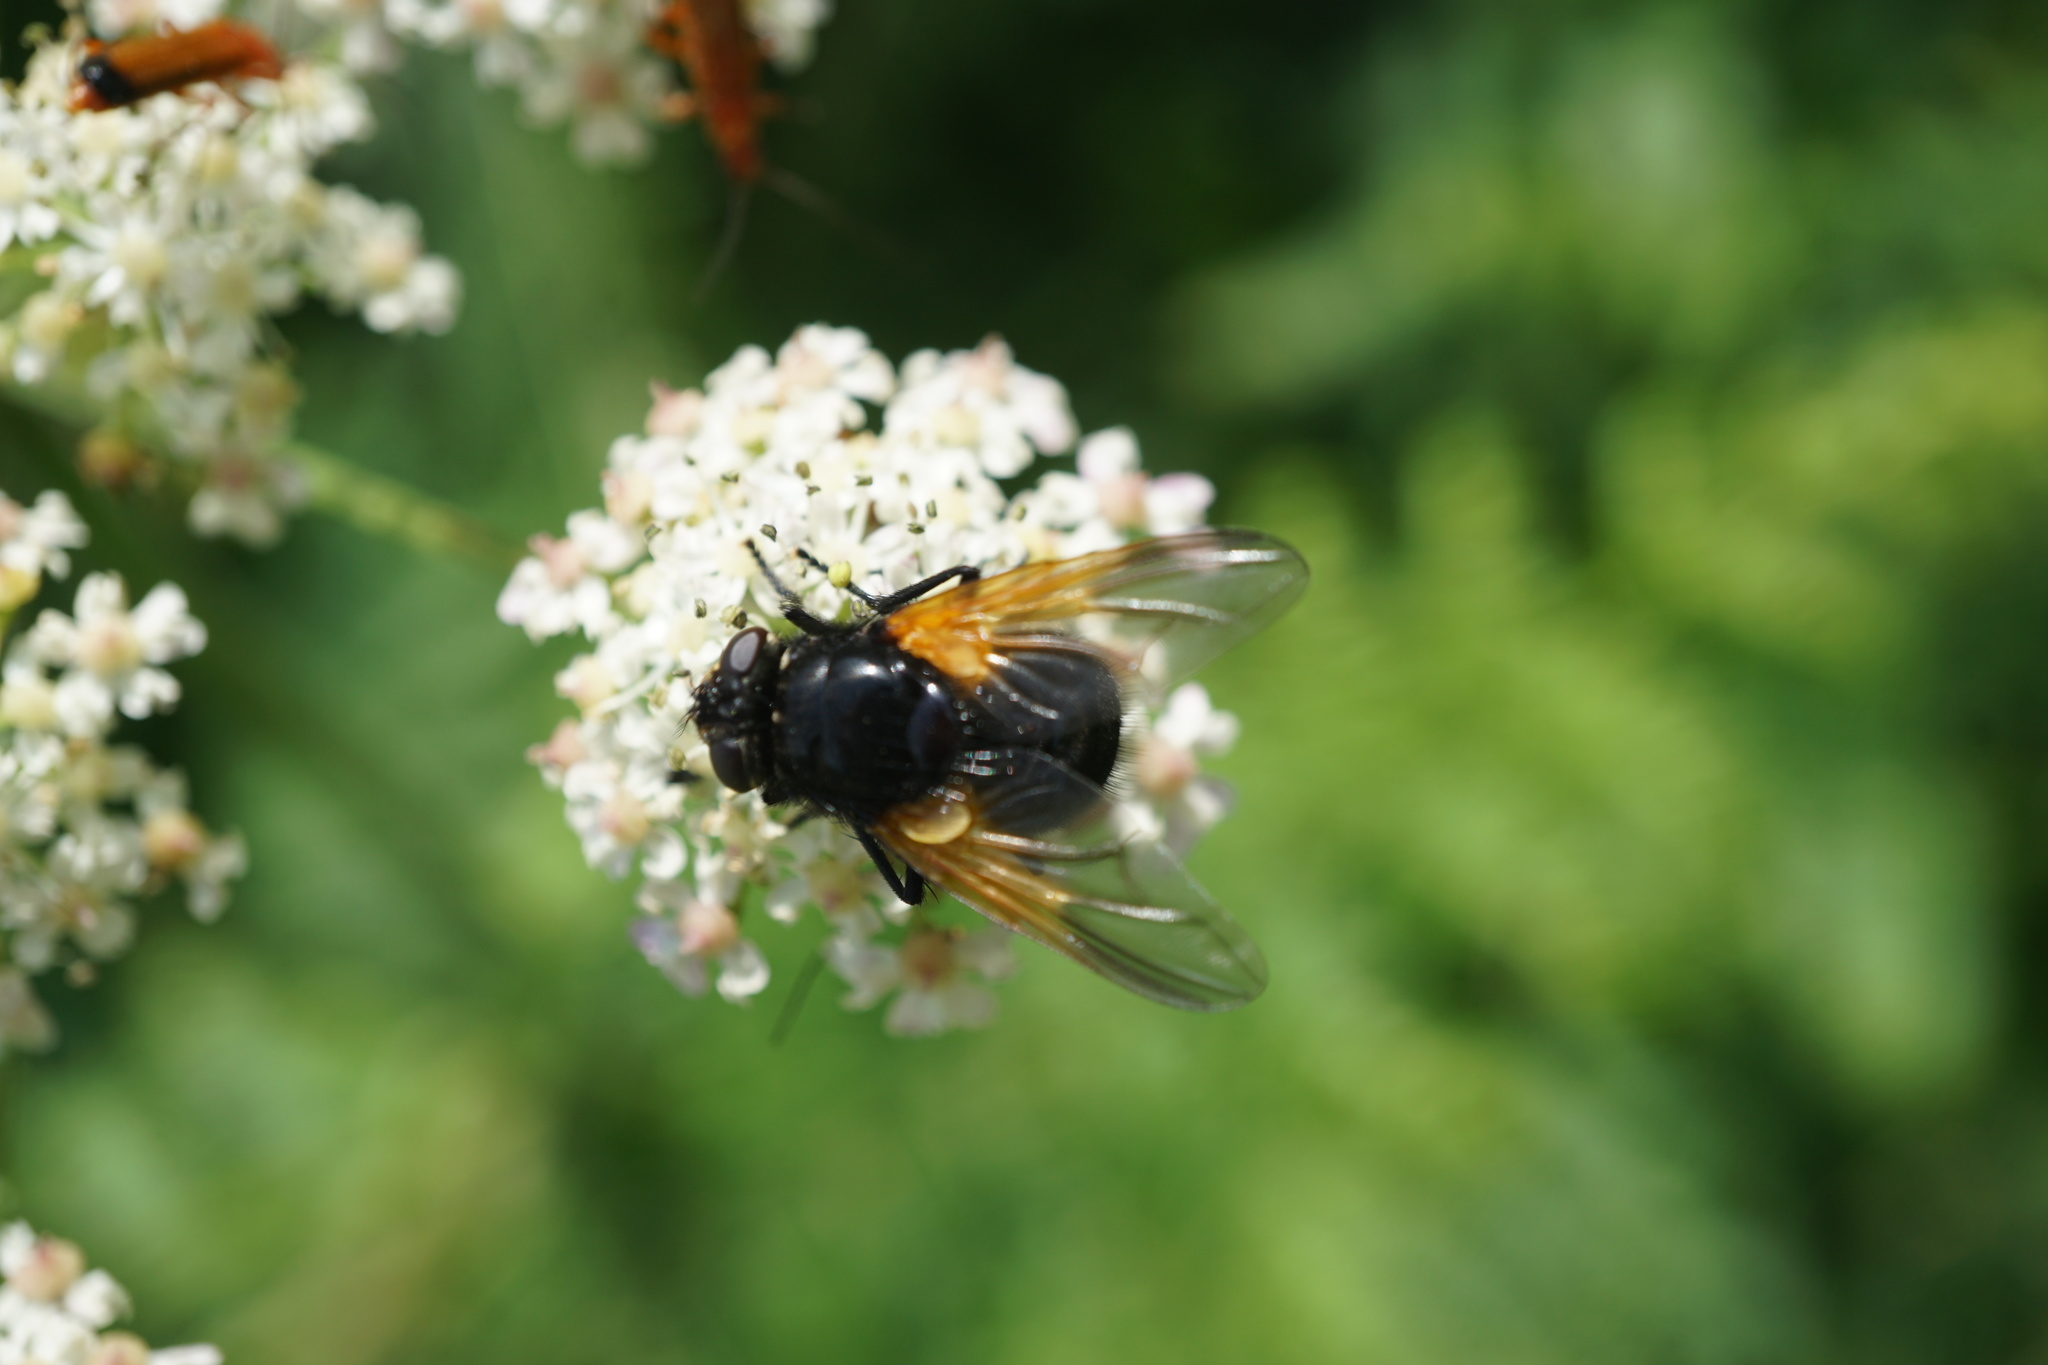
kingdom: Animalia
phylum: Arthropoda
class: Insecta
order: Diptera
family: Muscidae
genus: Mesembrina
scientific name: Mesembrina meridiana
